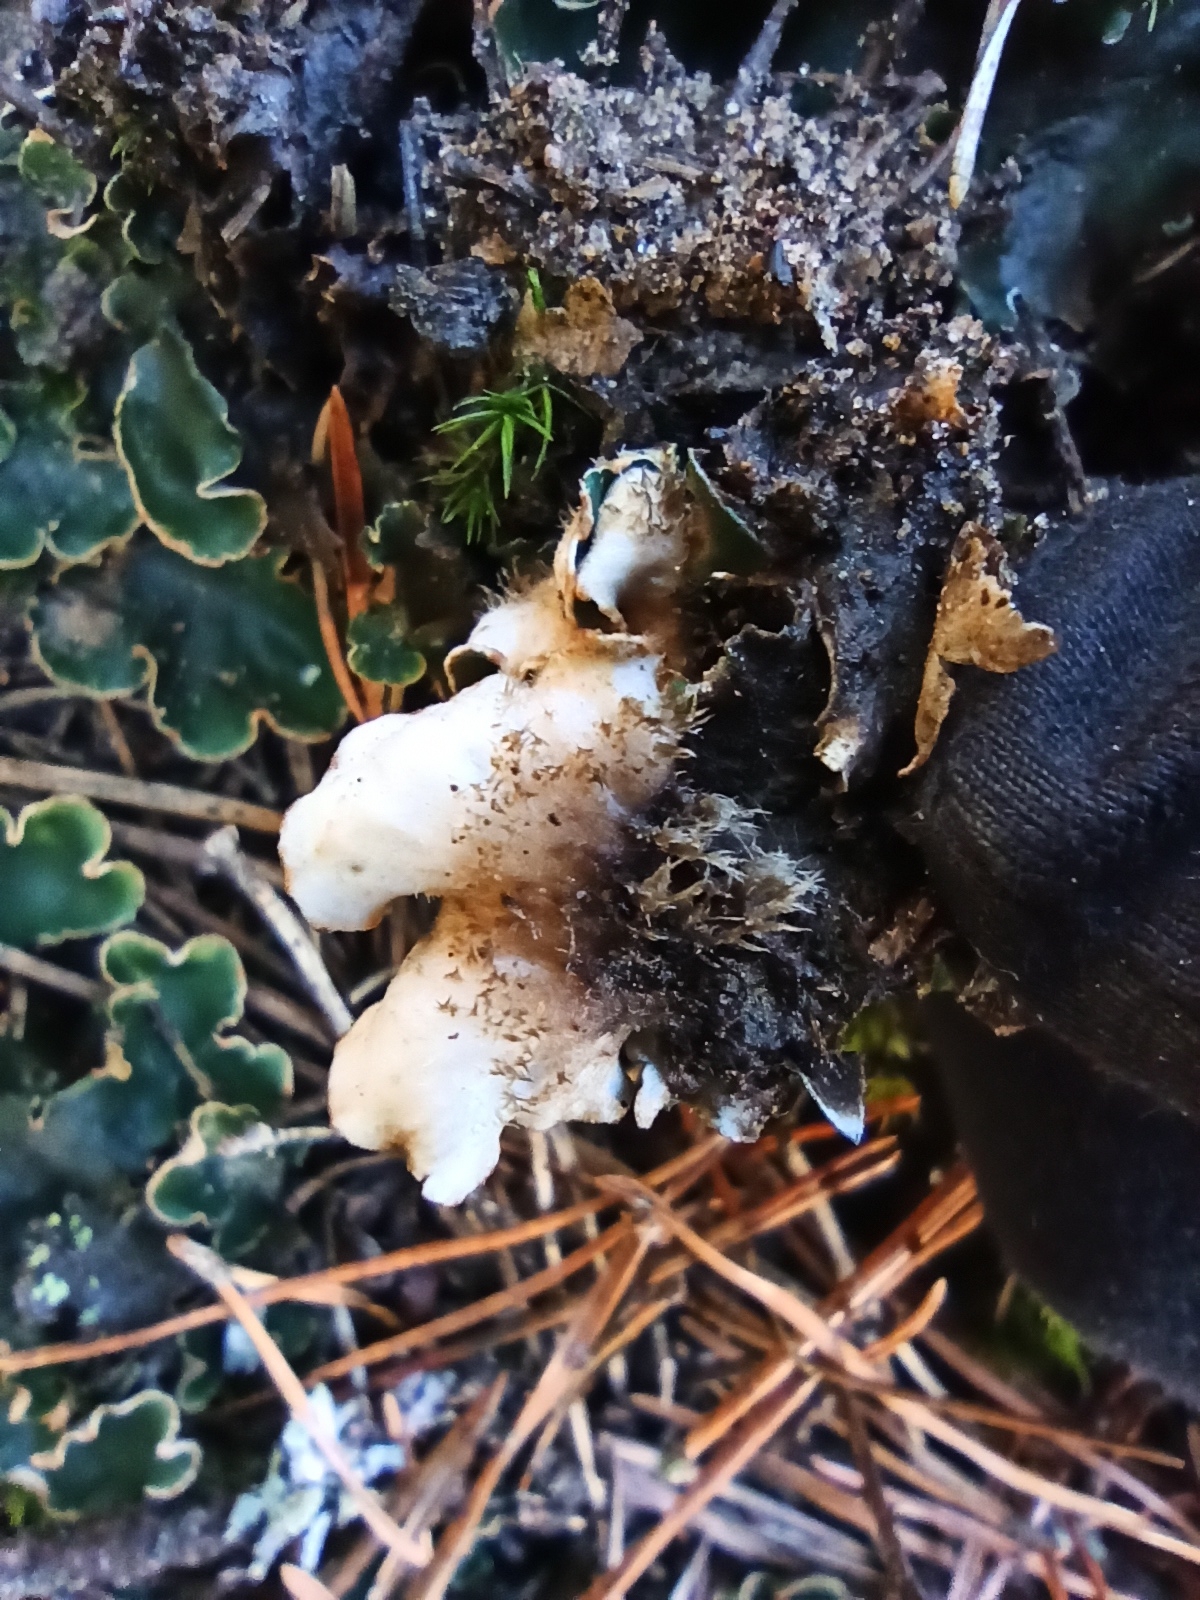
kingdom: Fungi
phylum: Ascomycota
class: Lecanoromycetes
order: Peltigerales
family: Peltigeraceae
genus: Peltigera
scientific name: Peltigera malacea
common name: Matt felt lichen
